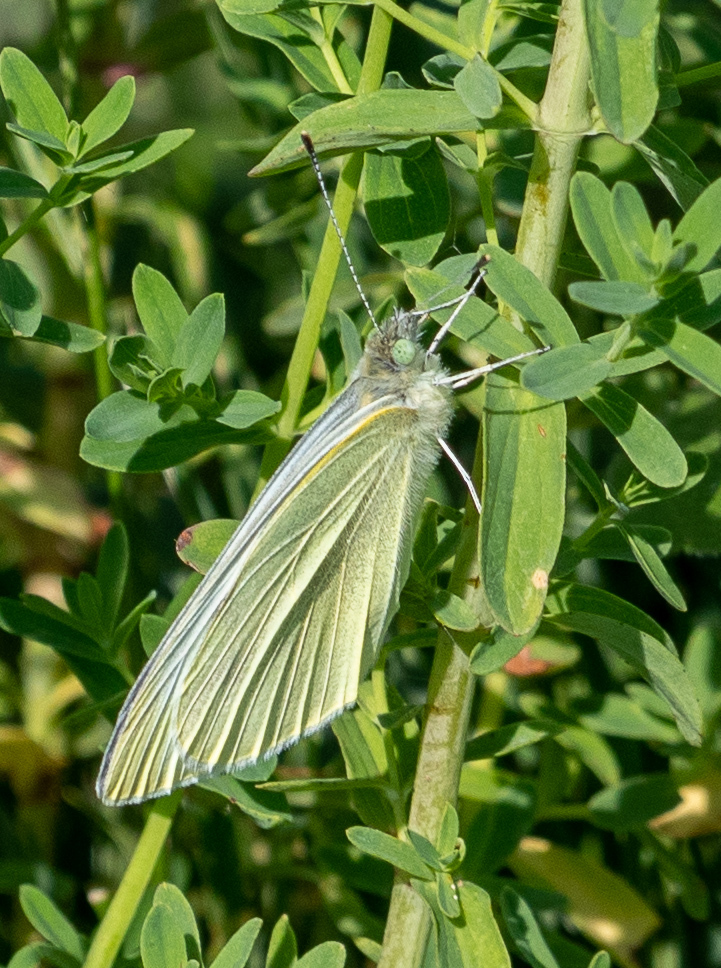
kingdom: Animalia
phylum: Arthropoda
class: Insecta
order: Lepidoptera
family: Pieridae
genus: Pieris
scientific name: Pieris rapae
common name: Small white
